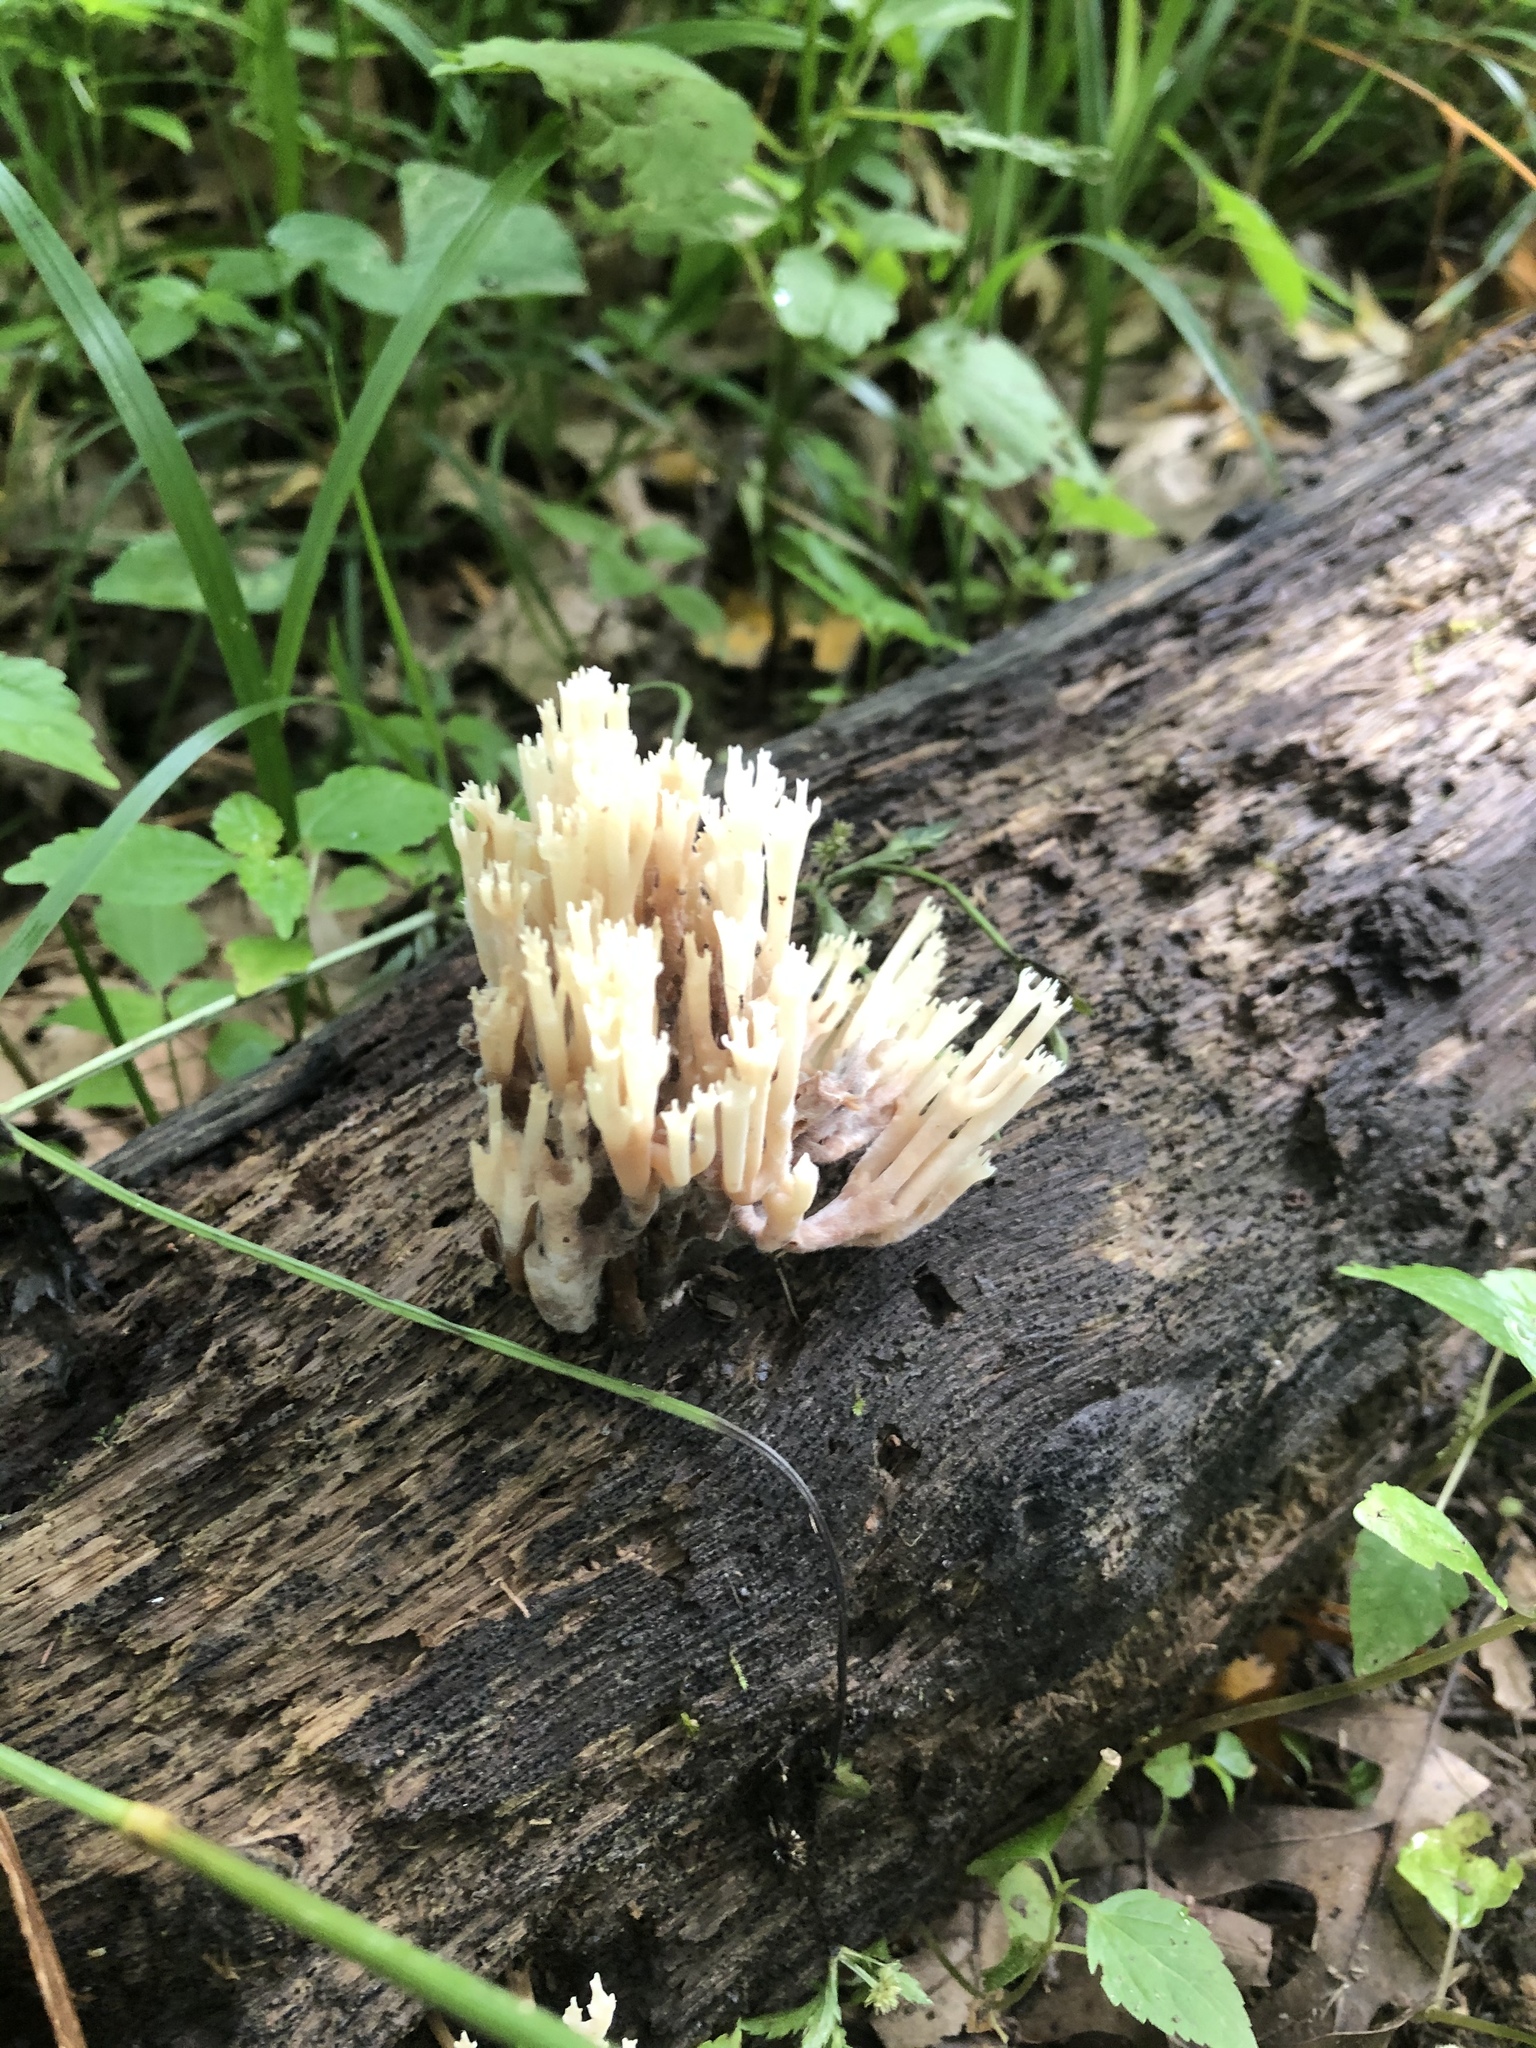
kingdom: Fungi
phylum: Basidiomycota
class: Agaricomycetes
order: Russulales
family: Auriscalpiaceae
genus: Artomyces
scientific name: Artomyces pyxidatus
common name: Crown-tipped coral fungus
